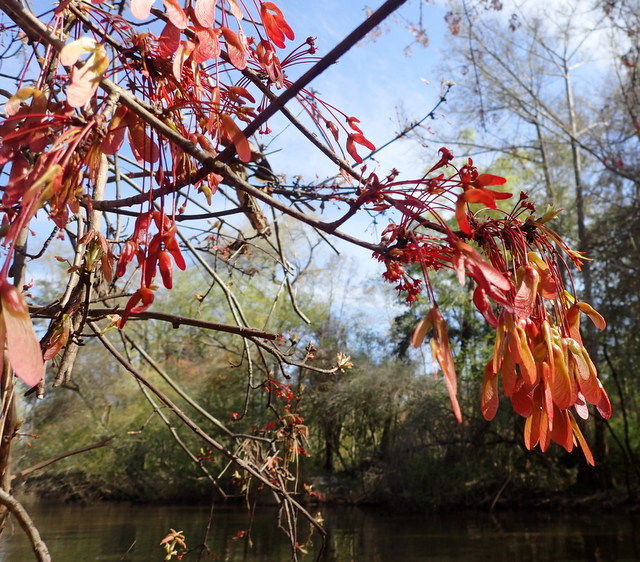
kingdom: Plantae
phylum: Tracheophyta
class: Magnoliopsida
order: Sapindales
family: Sapindaceae
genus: Acer
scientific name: Acer rubrum
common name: Red maple
